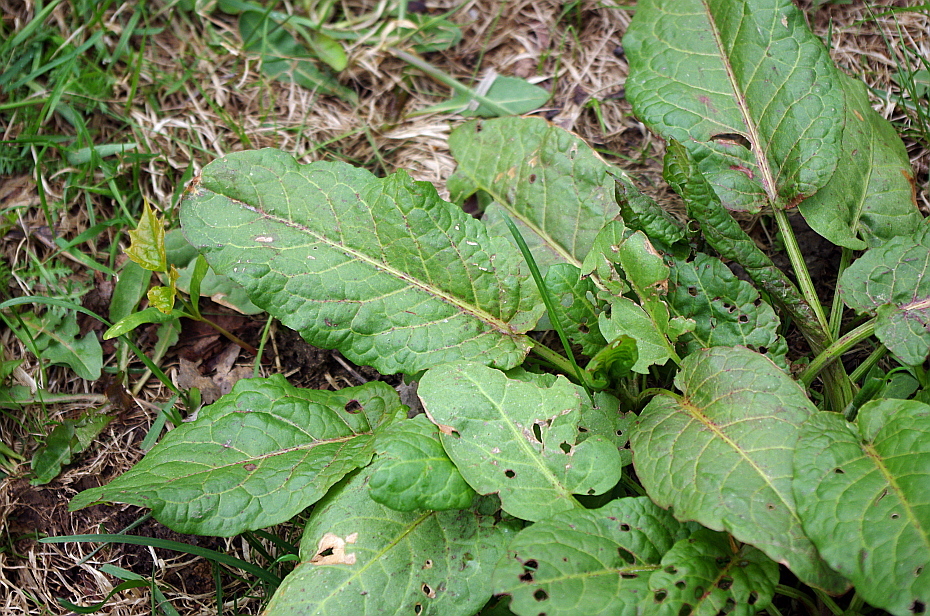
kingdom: Plantae
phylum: Tracheophyta
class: Magnoliopsida
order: Caryophyllales
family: Polygonaceae
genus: Rumex
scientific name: Rumex obtusifolius
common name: Bitter dock
